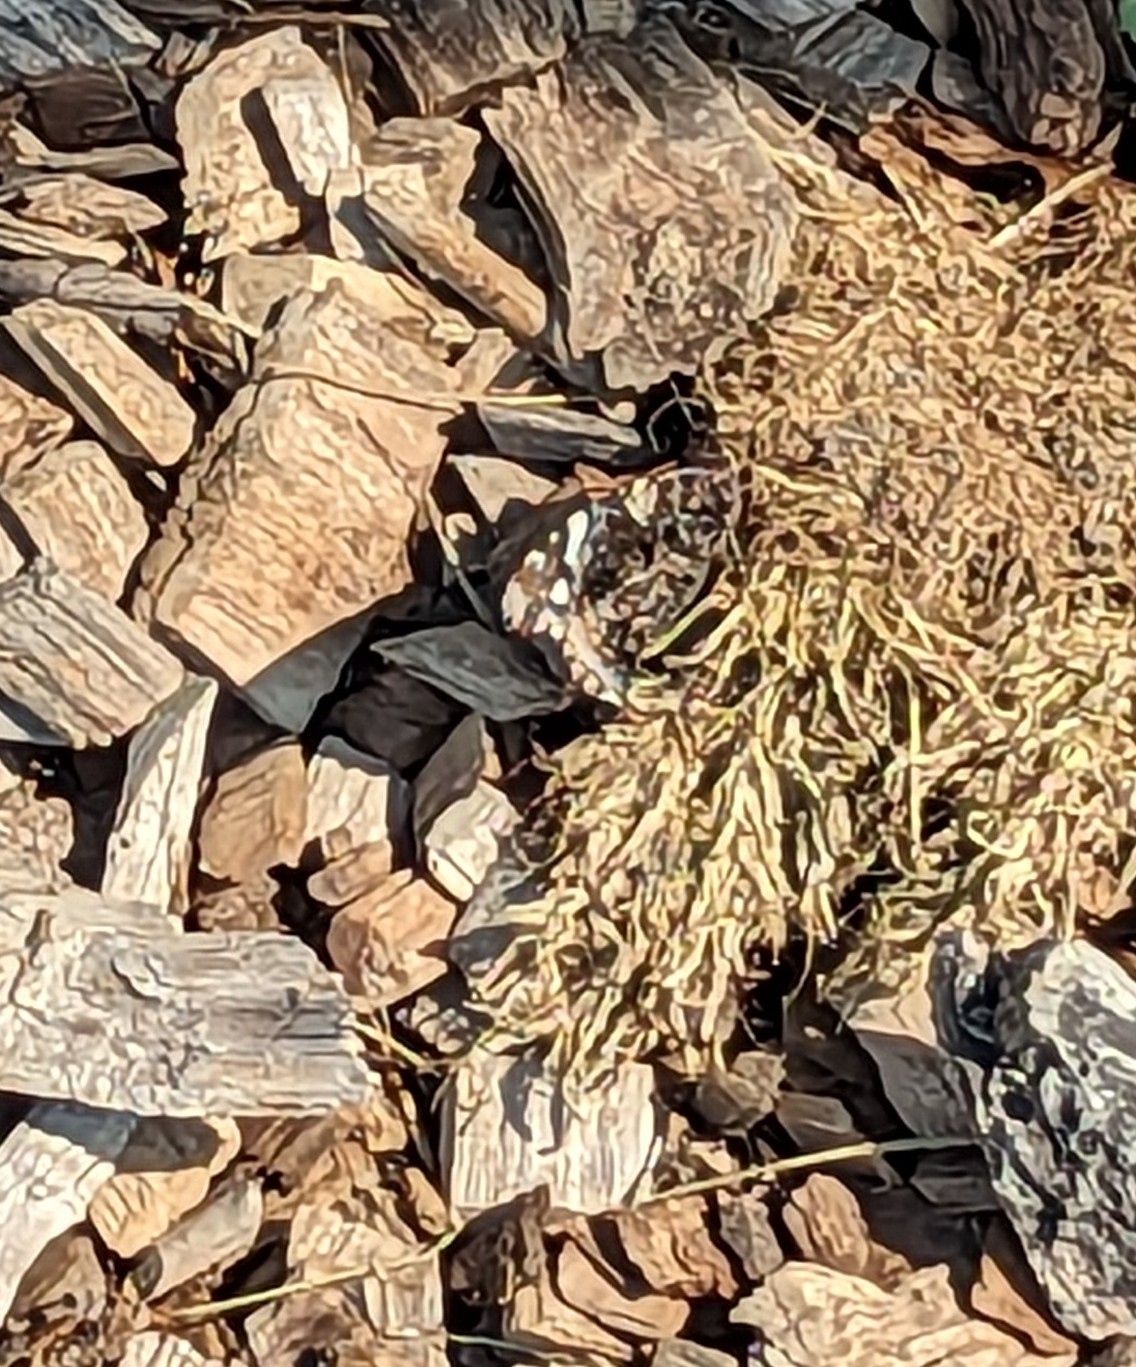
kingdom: Animalia
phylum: Arthropoda
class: Insecta
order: Lepidoptera
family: Nymphalidae
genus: Vanessa
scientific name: Vanessa atalanta
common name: Red admiral
